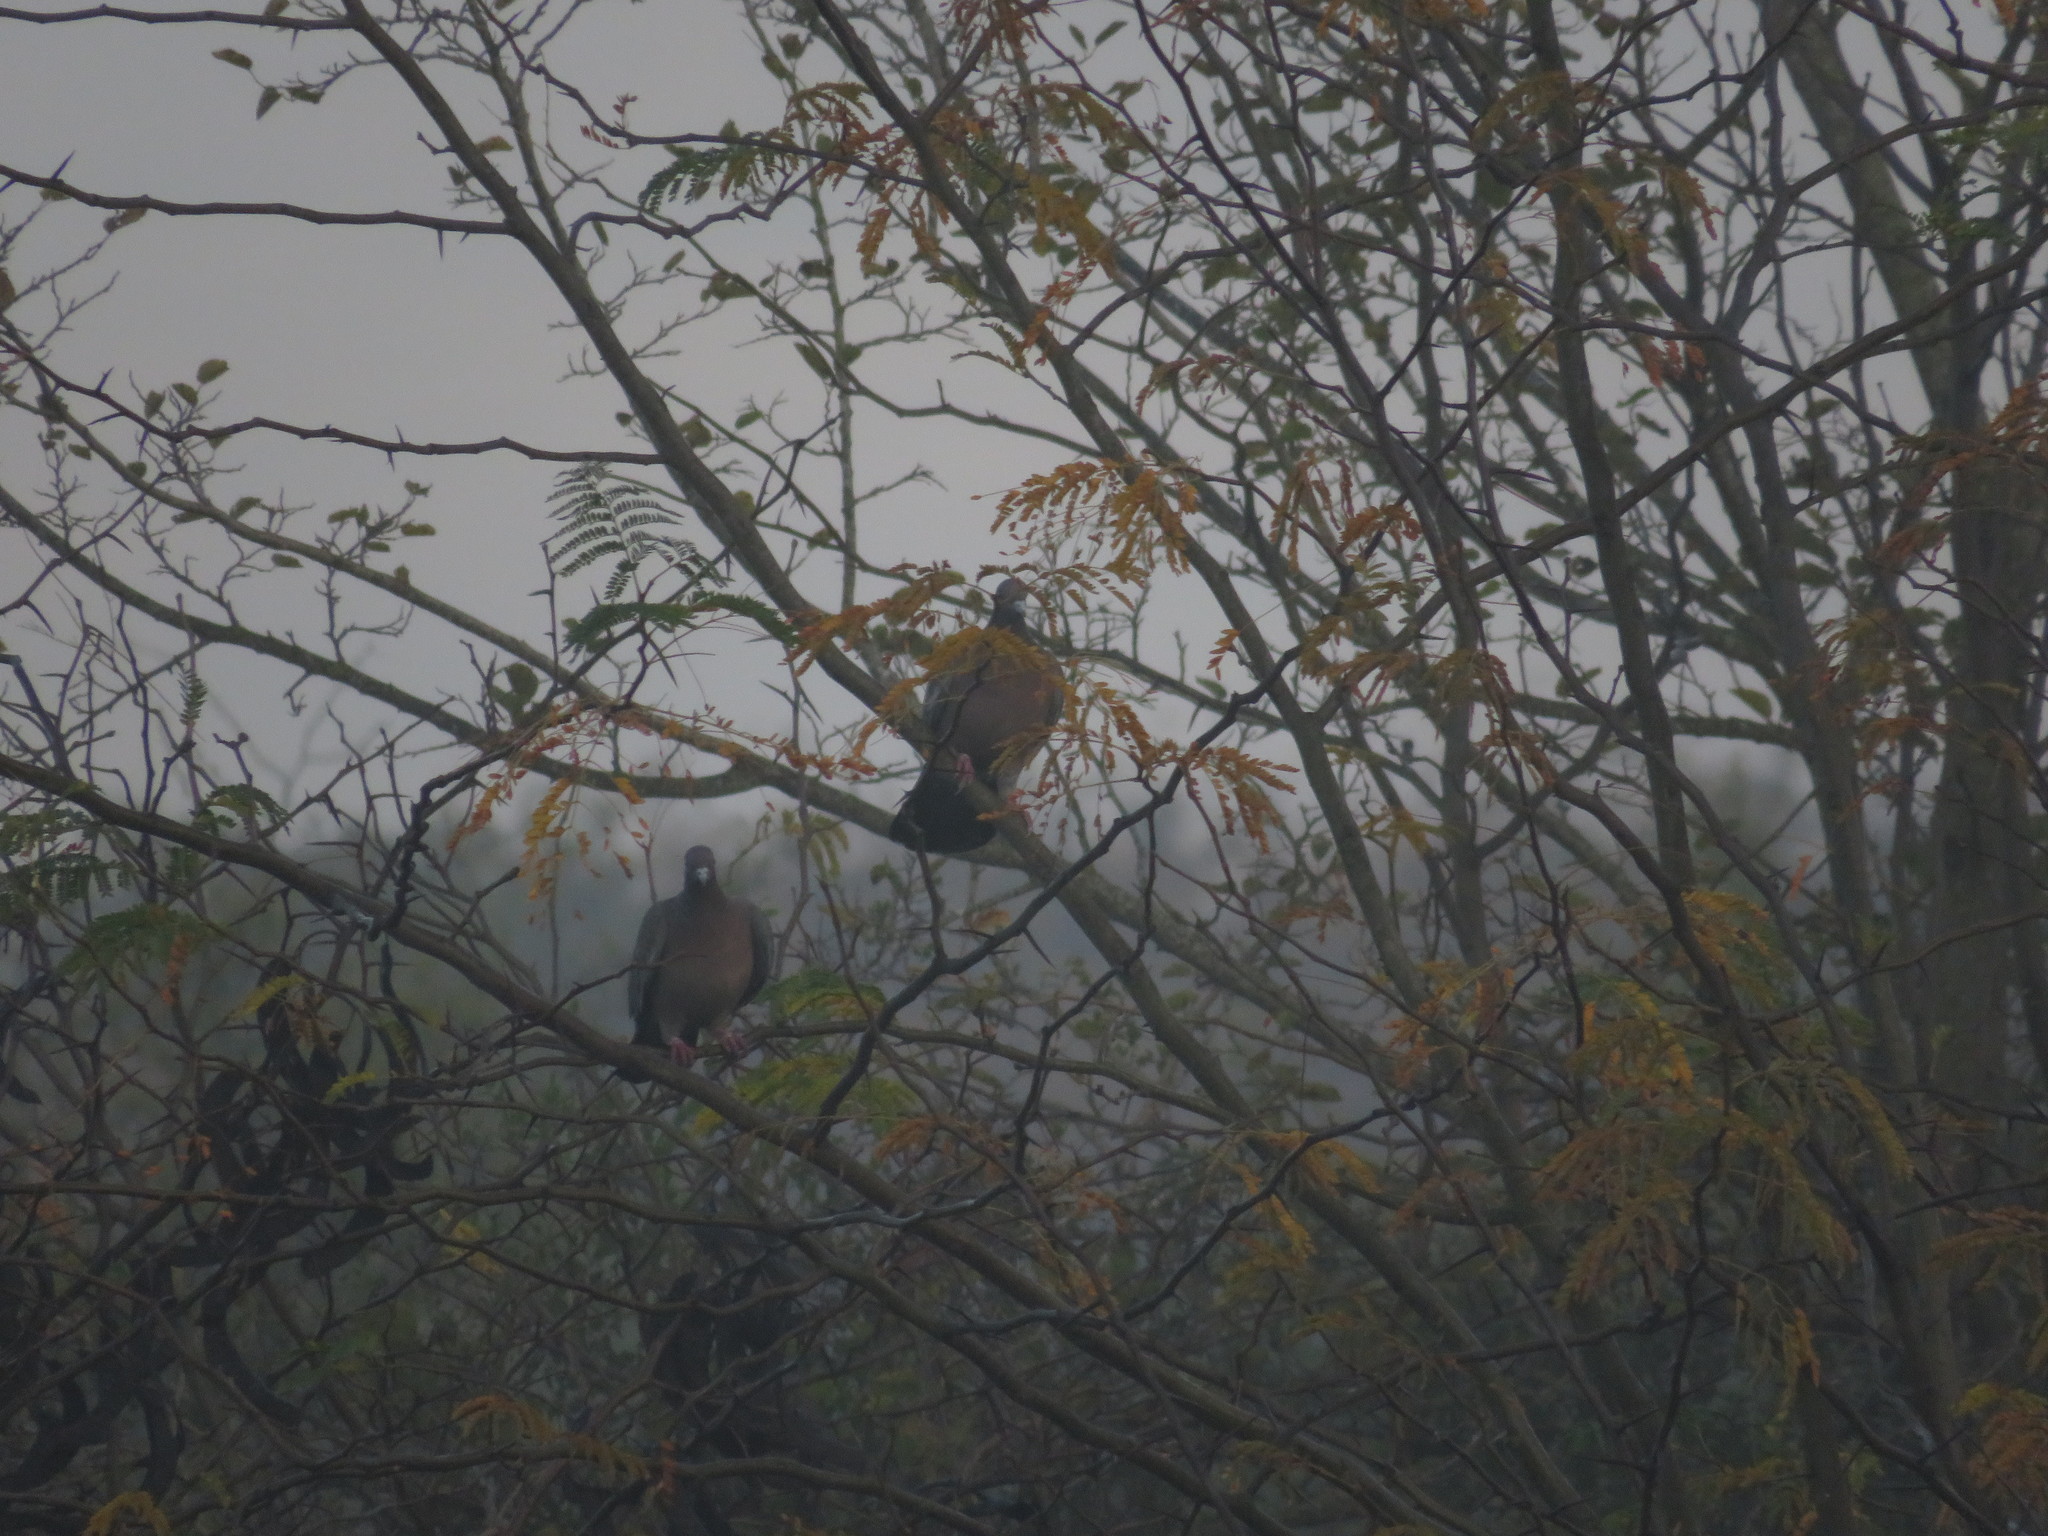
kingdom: Animalia
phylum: Chordata
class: Aves
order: Columbiformes
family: Columbidae
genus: Patagioenas
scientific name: Patagioenas picazuro
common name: Picazuro pigeon
